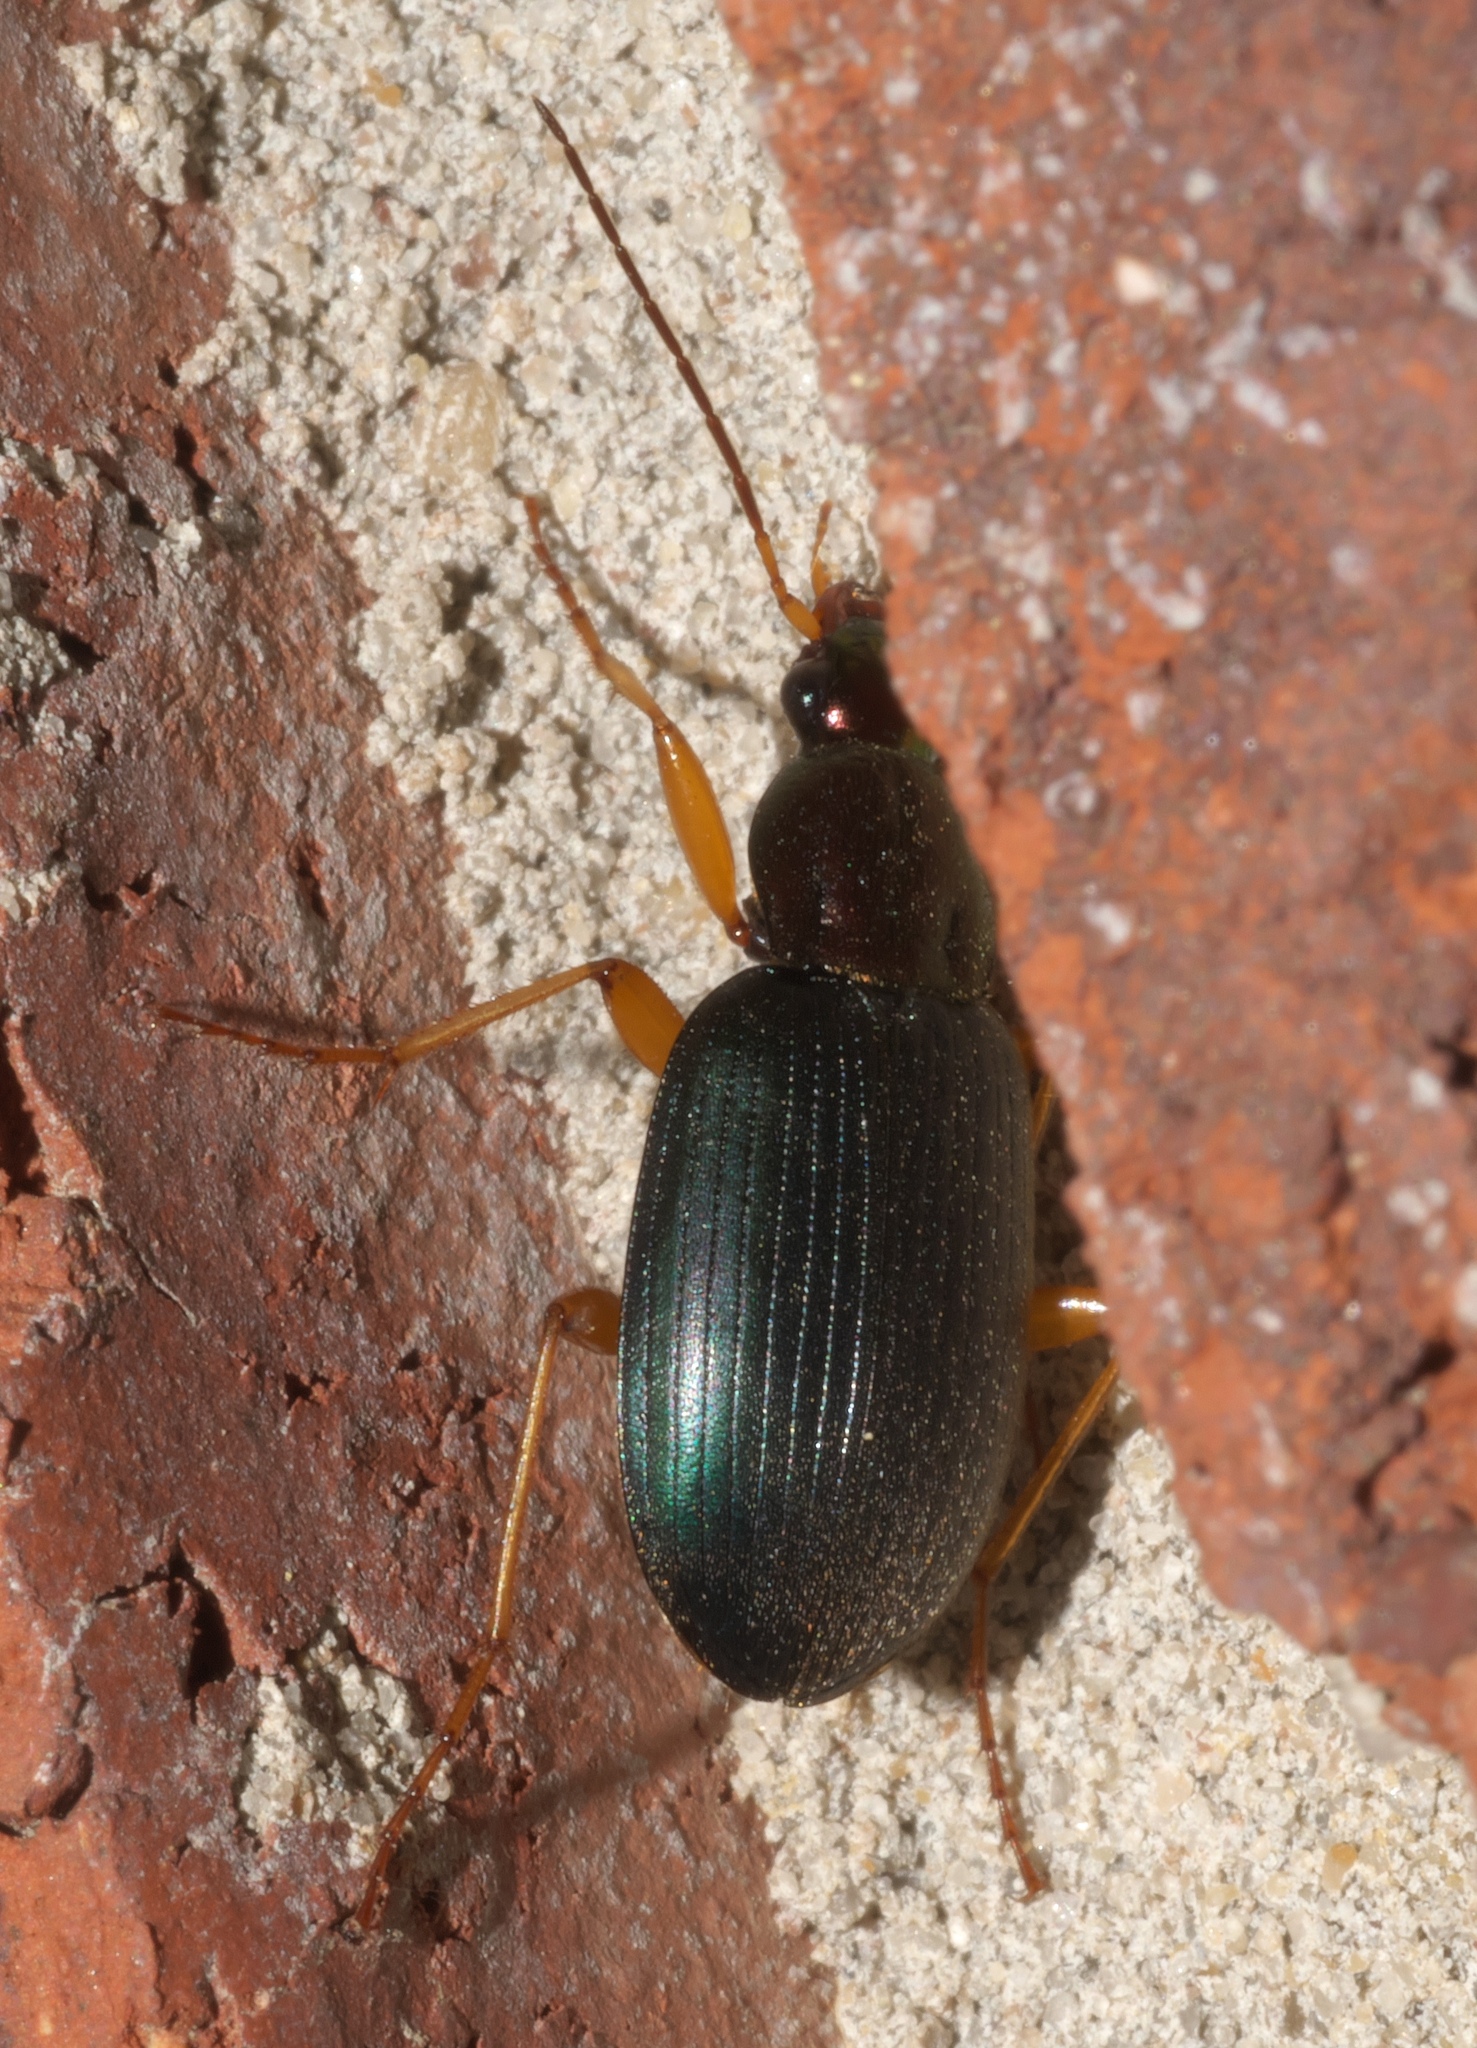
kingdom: Animalia
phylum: Arthropoda
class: Insecta
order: Coleoptera
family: Carabidae
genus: Chlaenius
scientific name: Chlaenius tricolor
